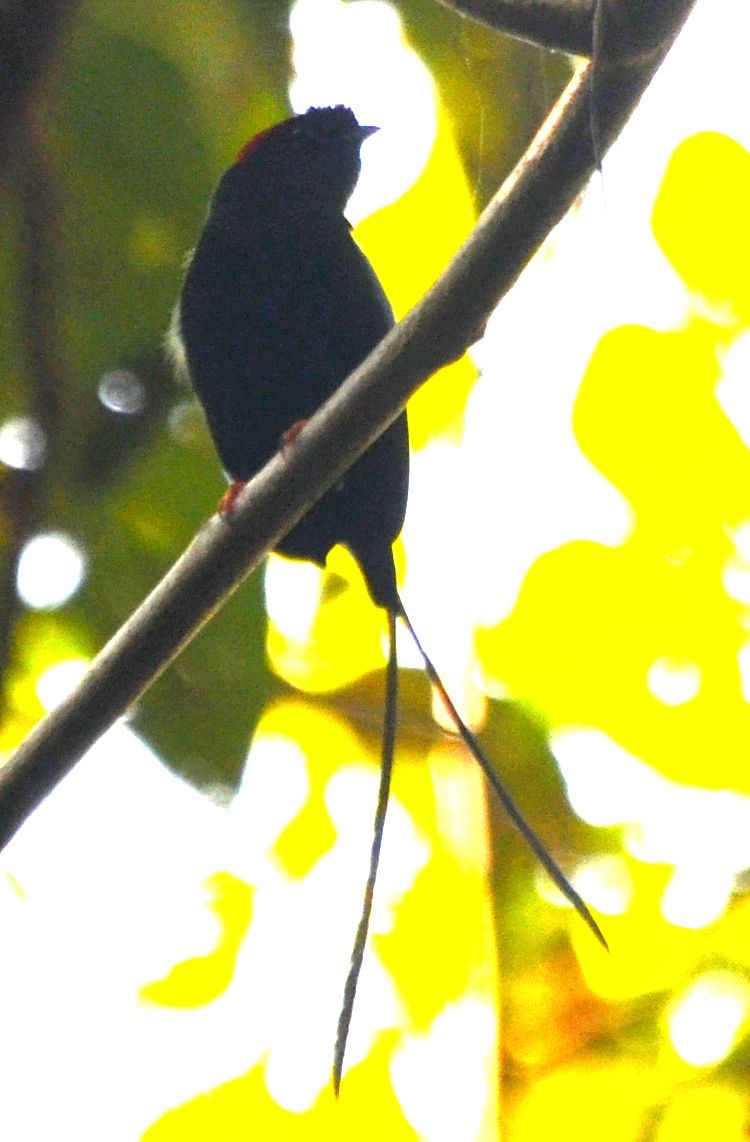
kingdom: Animalia
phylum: Chordata
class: Aves
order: Passeriformes
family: Pipridae
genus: Chiroxiphia
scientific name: Chiroxiphia linearis
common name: Long-tailed manakin
